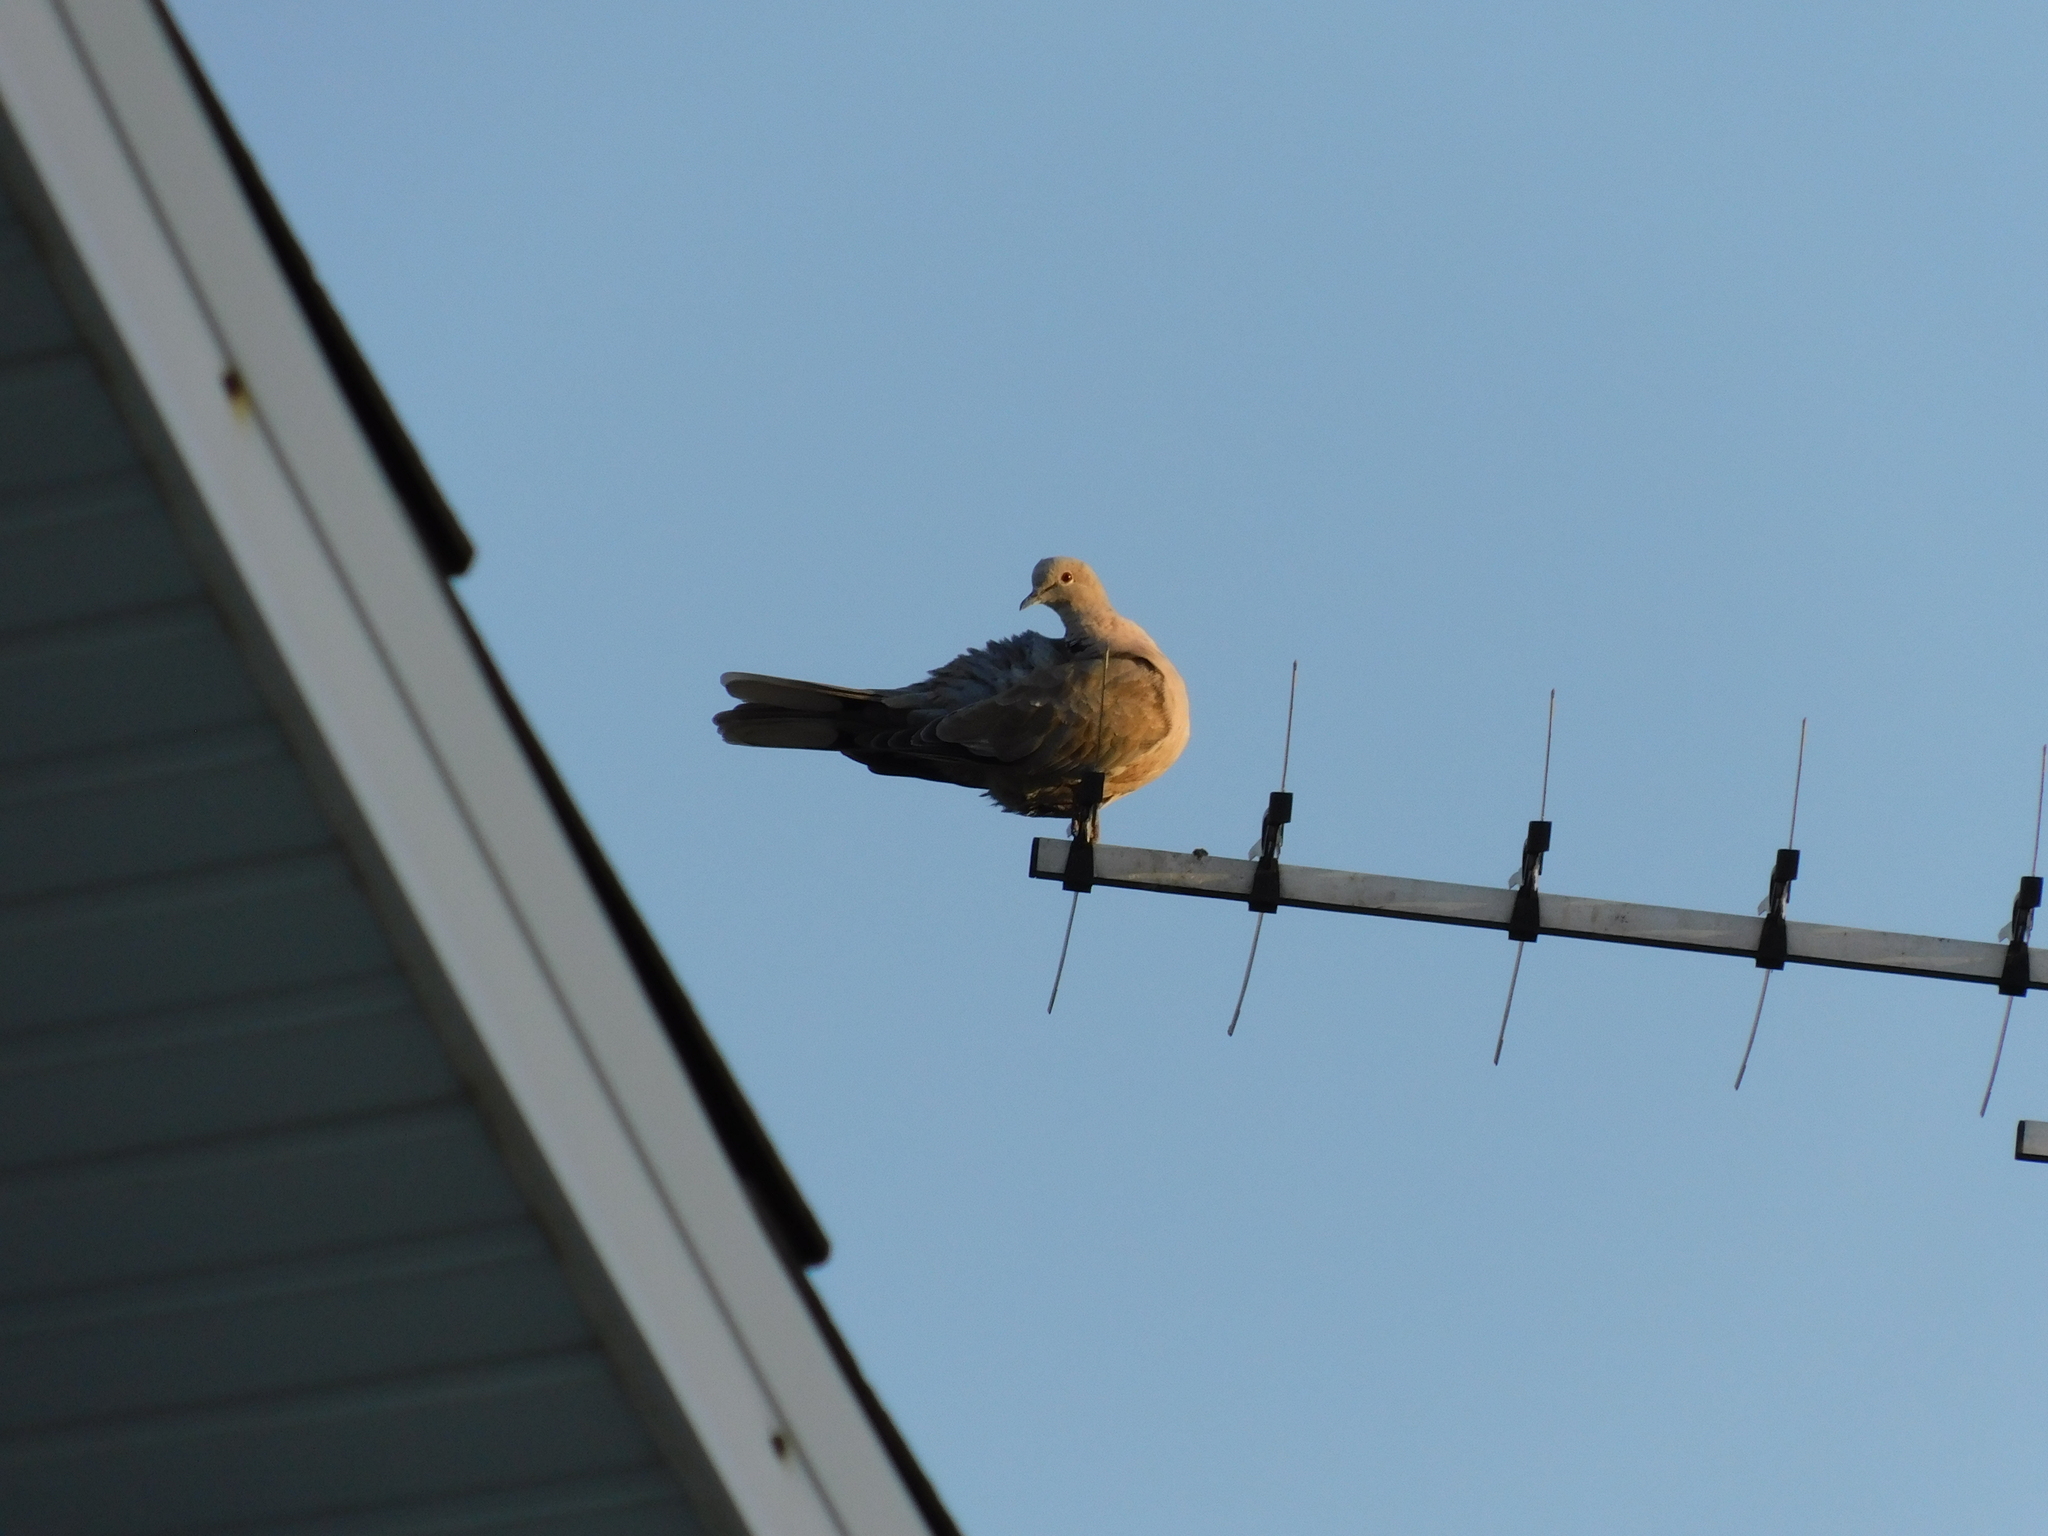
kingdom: Animalia
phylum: Chordata
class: Aves
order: Columbiformes
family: Columbidae
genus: Streptopelia
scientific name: Streptopelia decaocto
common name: Eurasian collared dove
